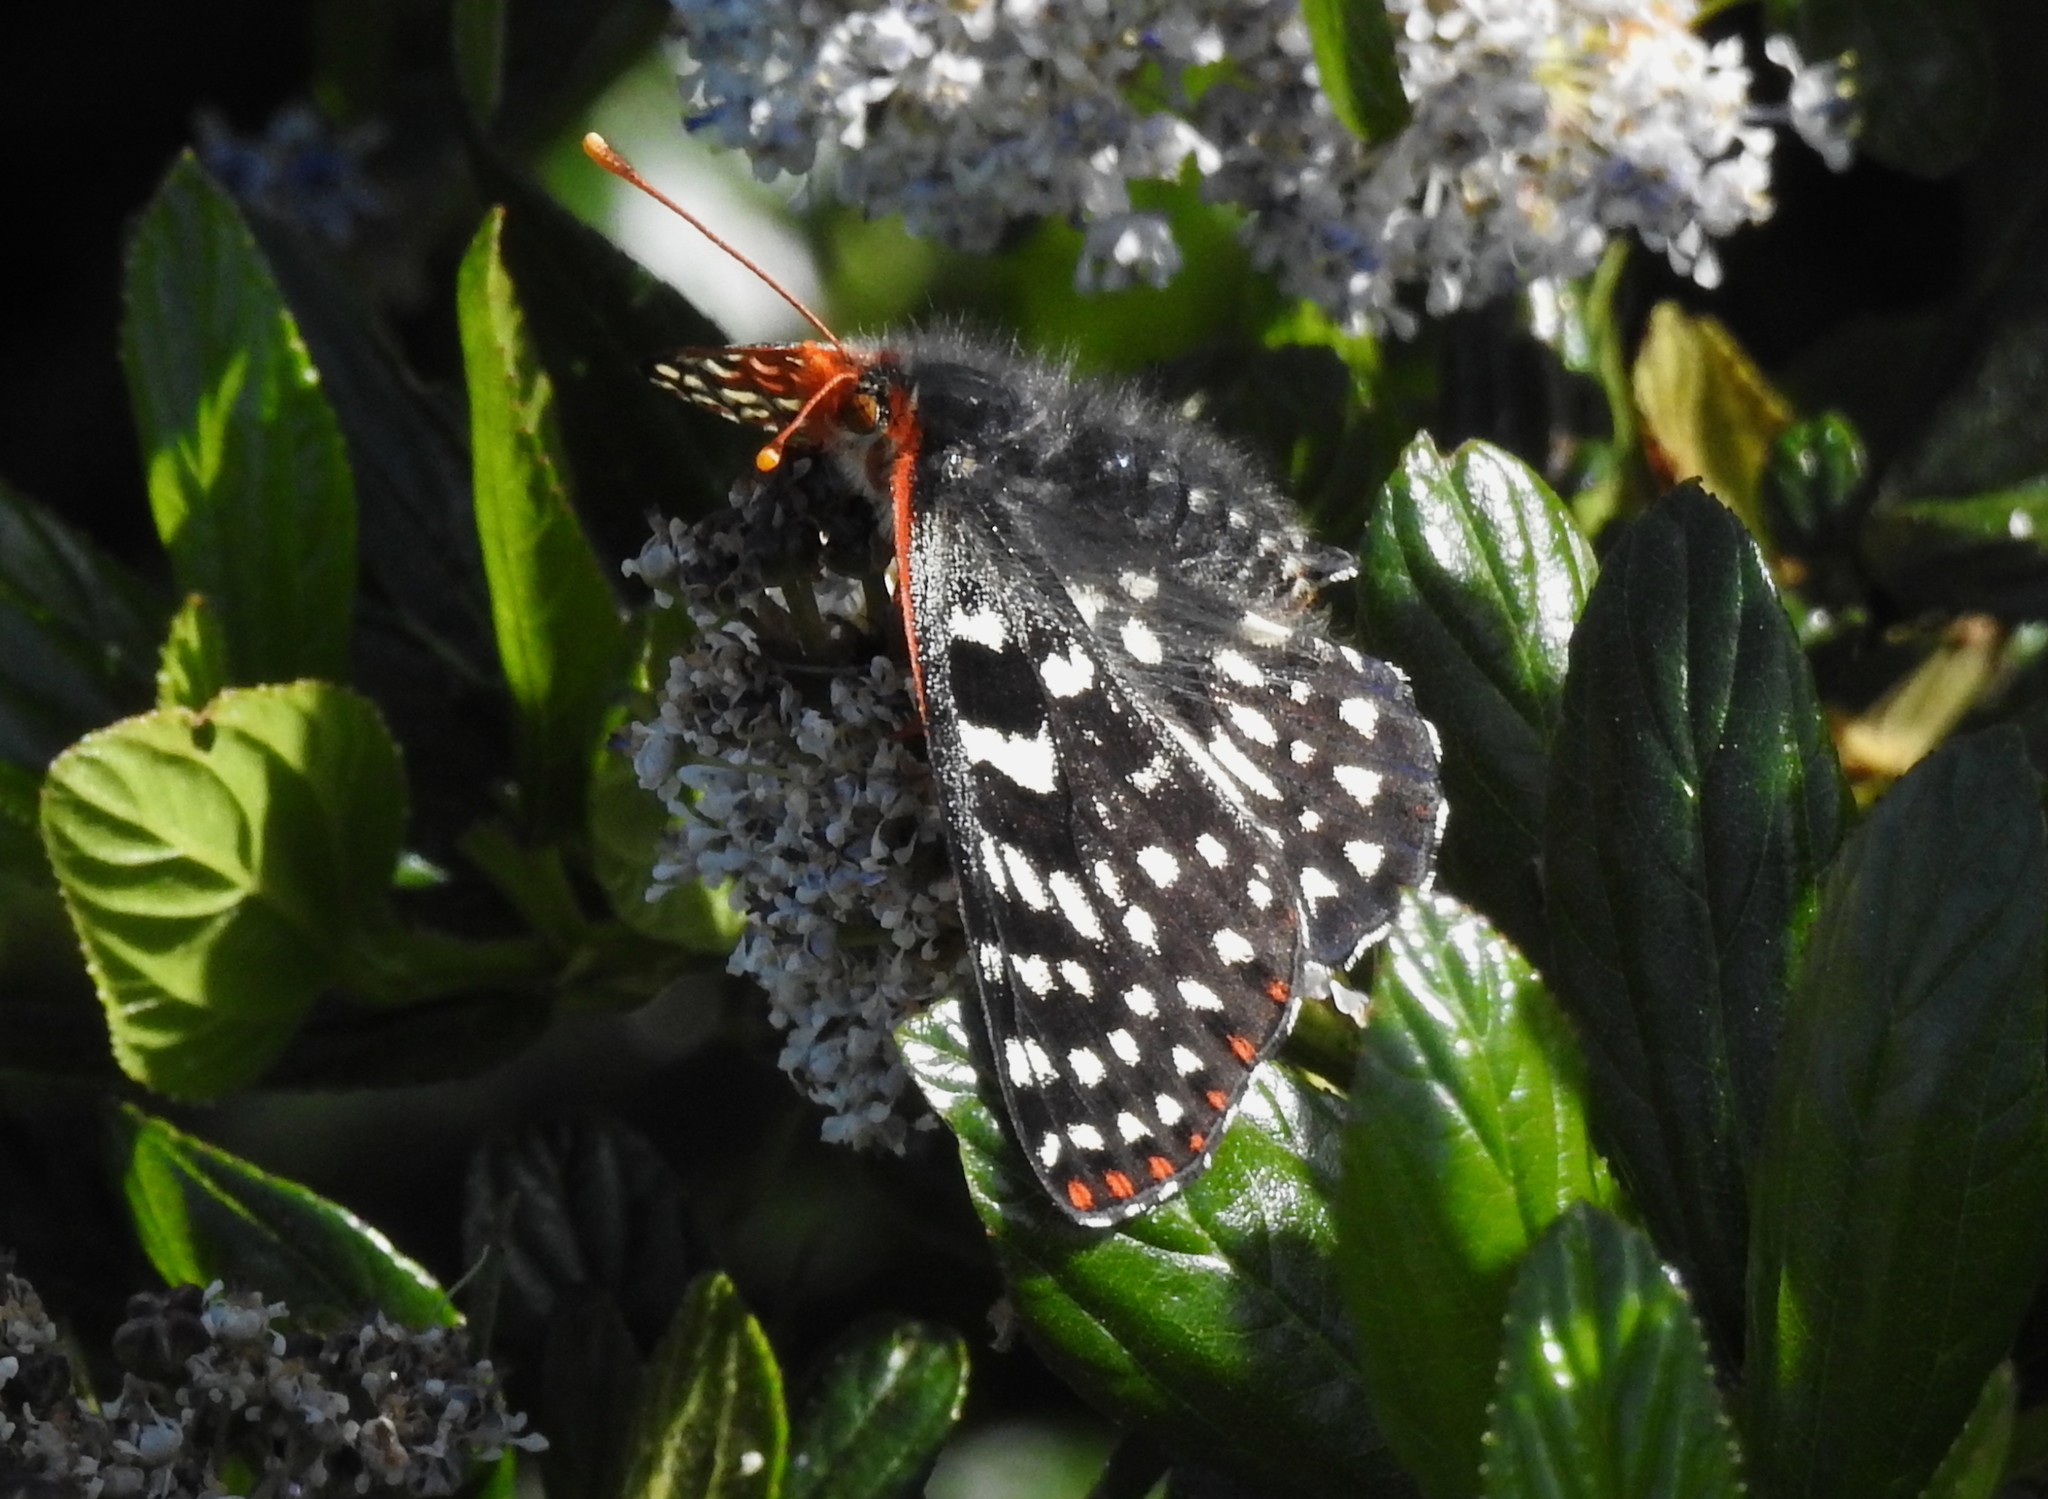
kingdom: Animalia
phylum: Arthropoda
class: Insecta
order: Lepidoptera
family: Nymphalidae
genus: Occidryas
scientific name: Occidryas chalcedona
